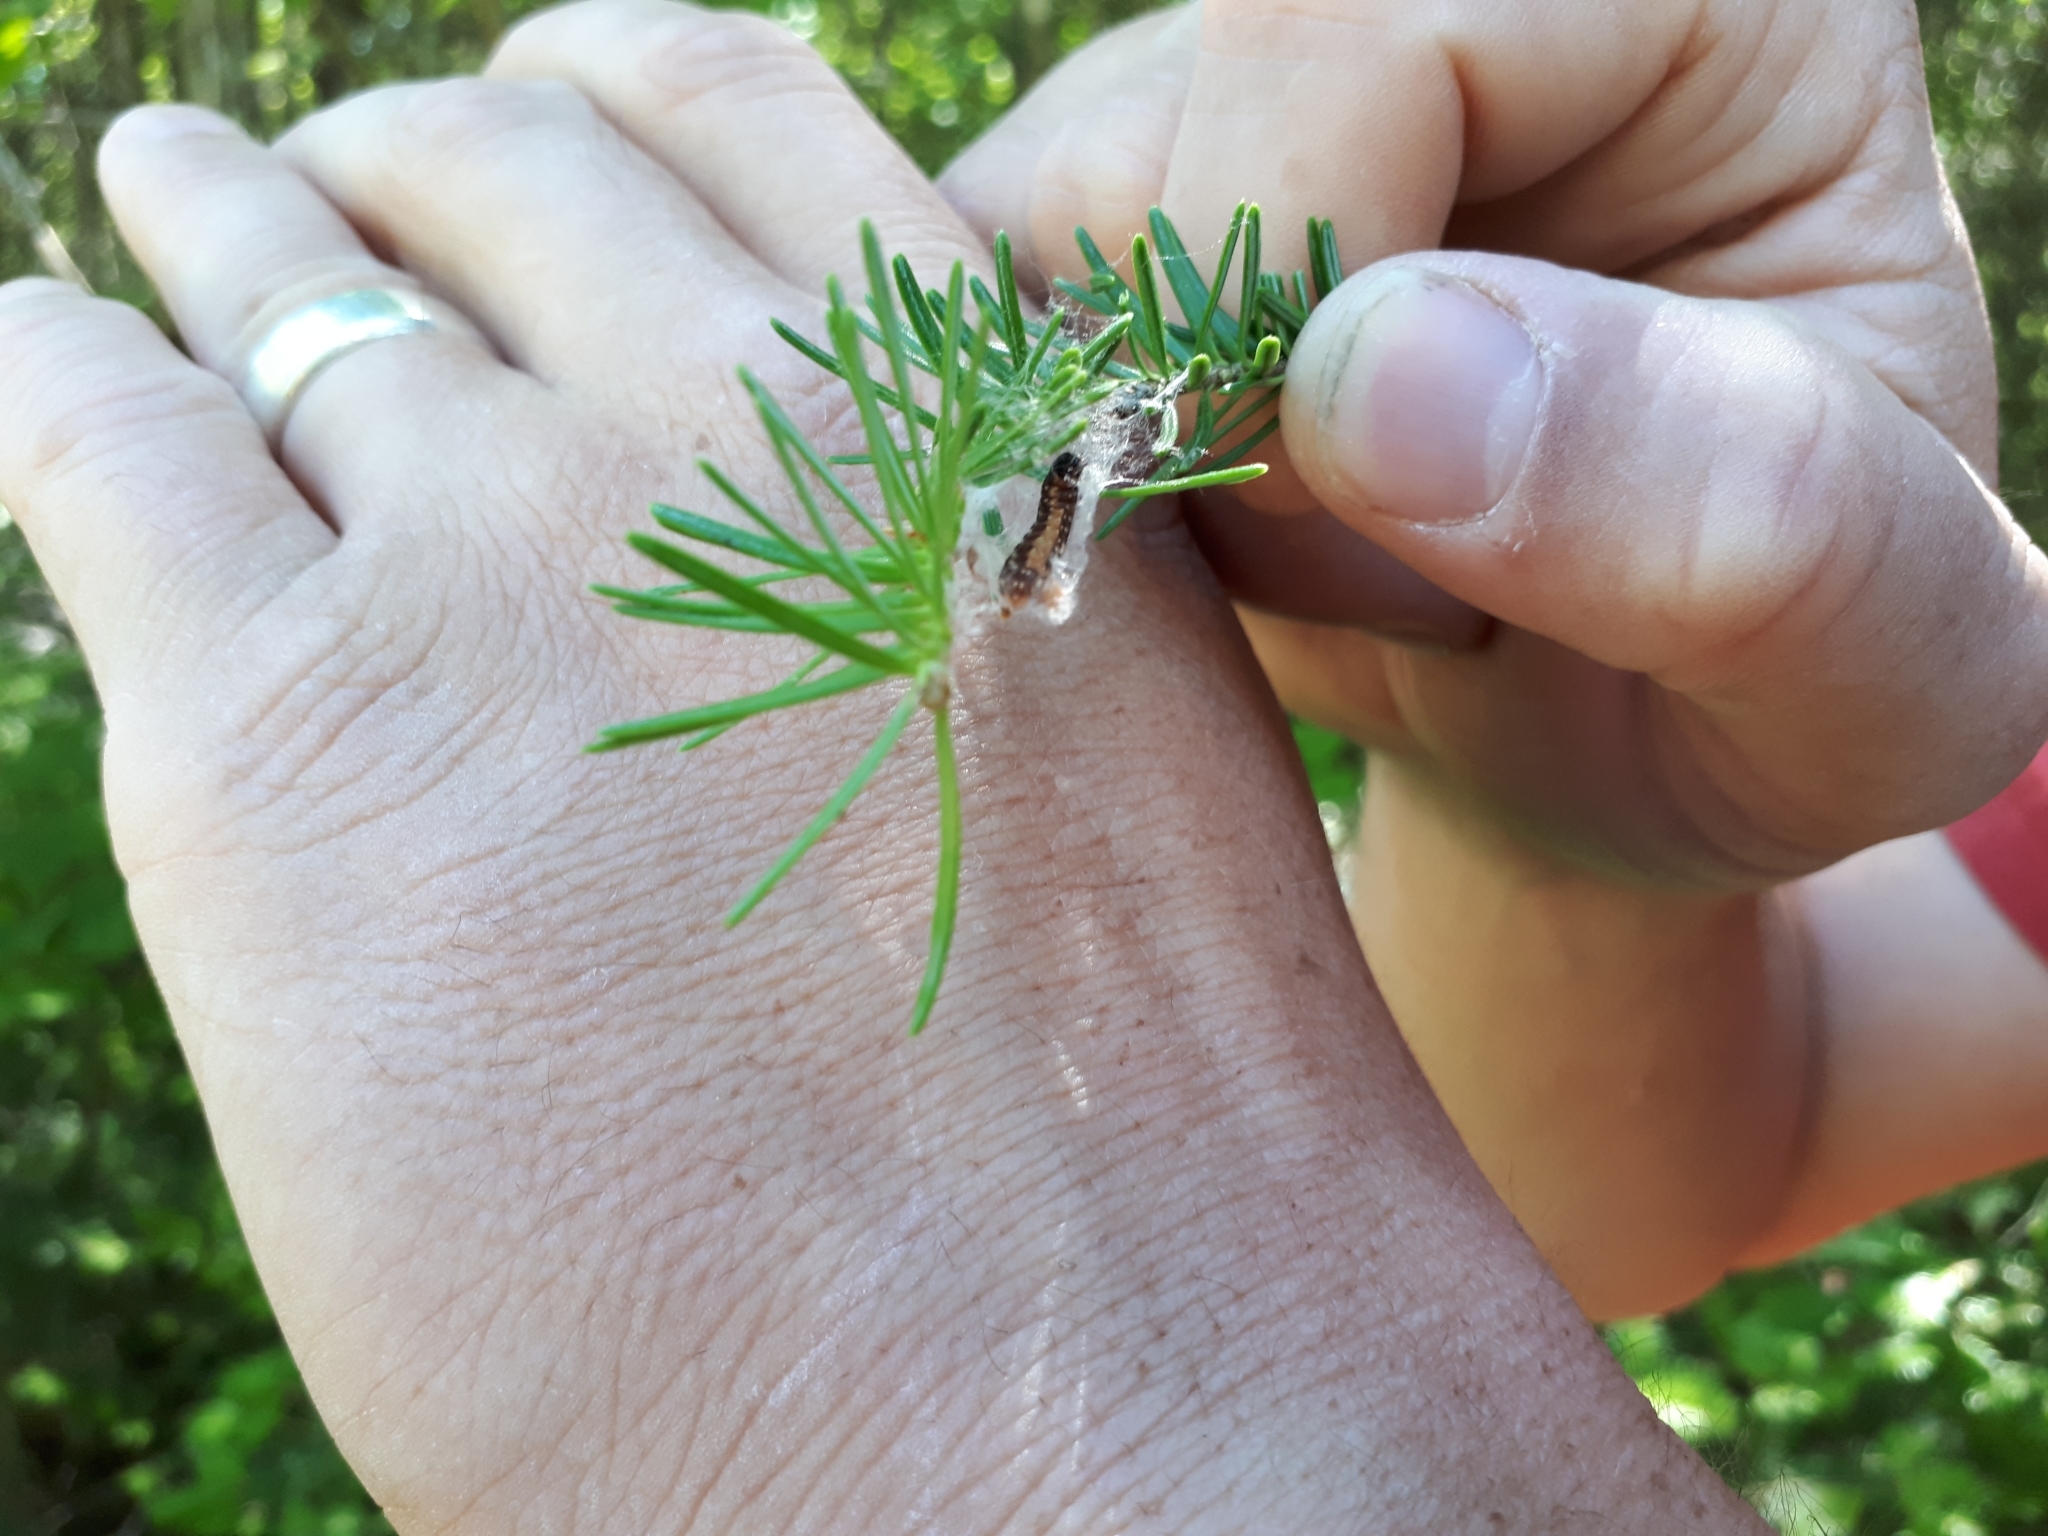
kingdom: Animalia
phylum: Arthropoda
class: Insecta
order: Lepidoptera
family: Tortricidae
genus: Choristoneura
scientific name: Choristoneura fumiferana
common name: Spruce budworm
